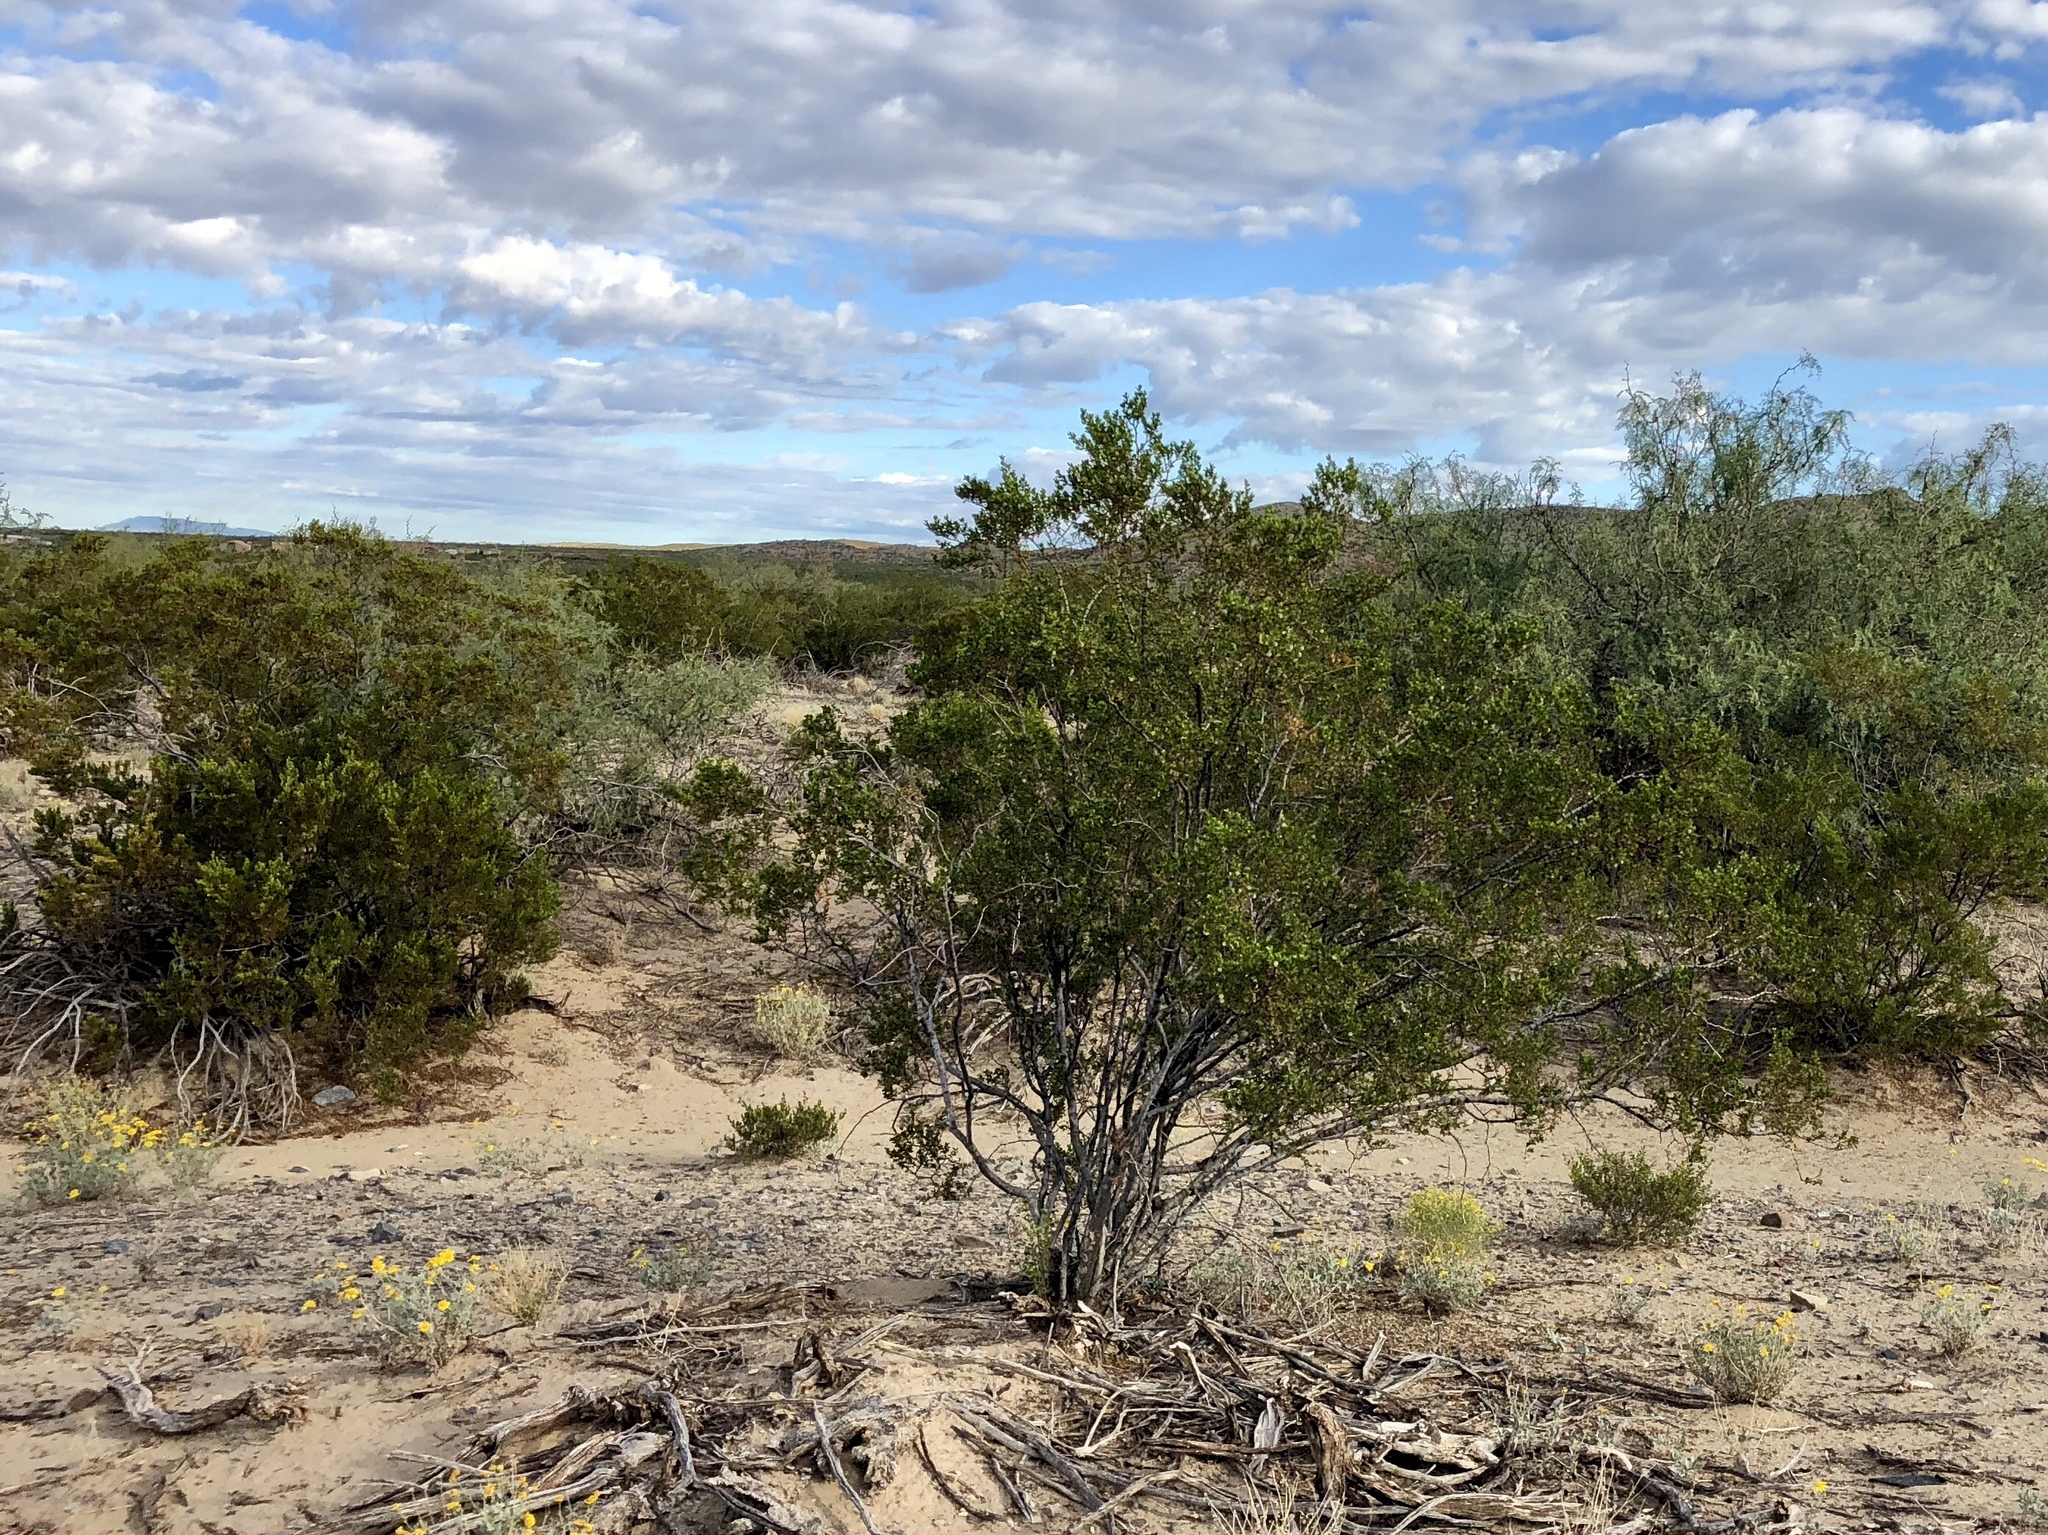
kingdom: Plantae
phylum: Tracheophyta
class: Magnoliopsida
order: Zygophyllales
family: Zygophyllaceae
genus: Larrea
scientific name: Larrea tridentata
